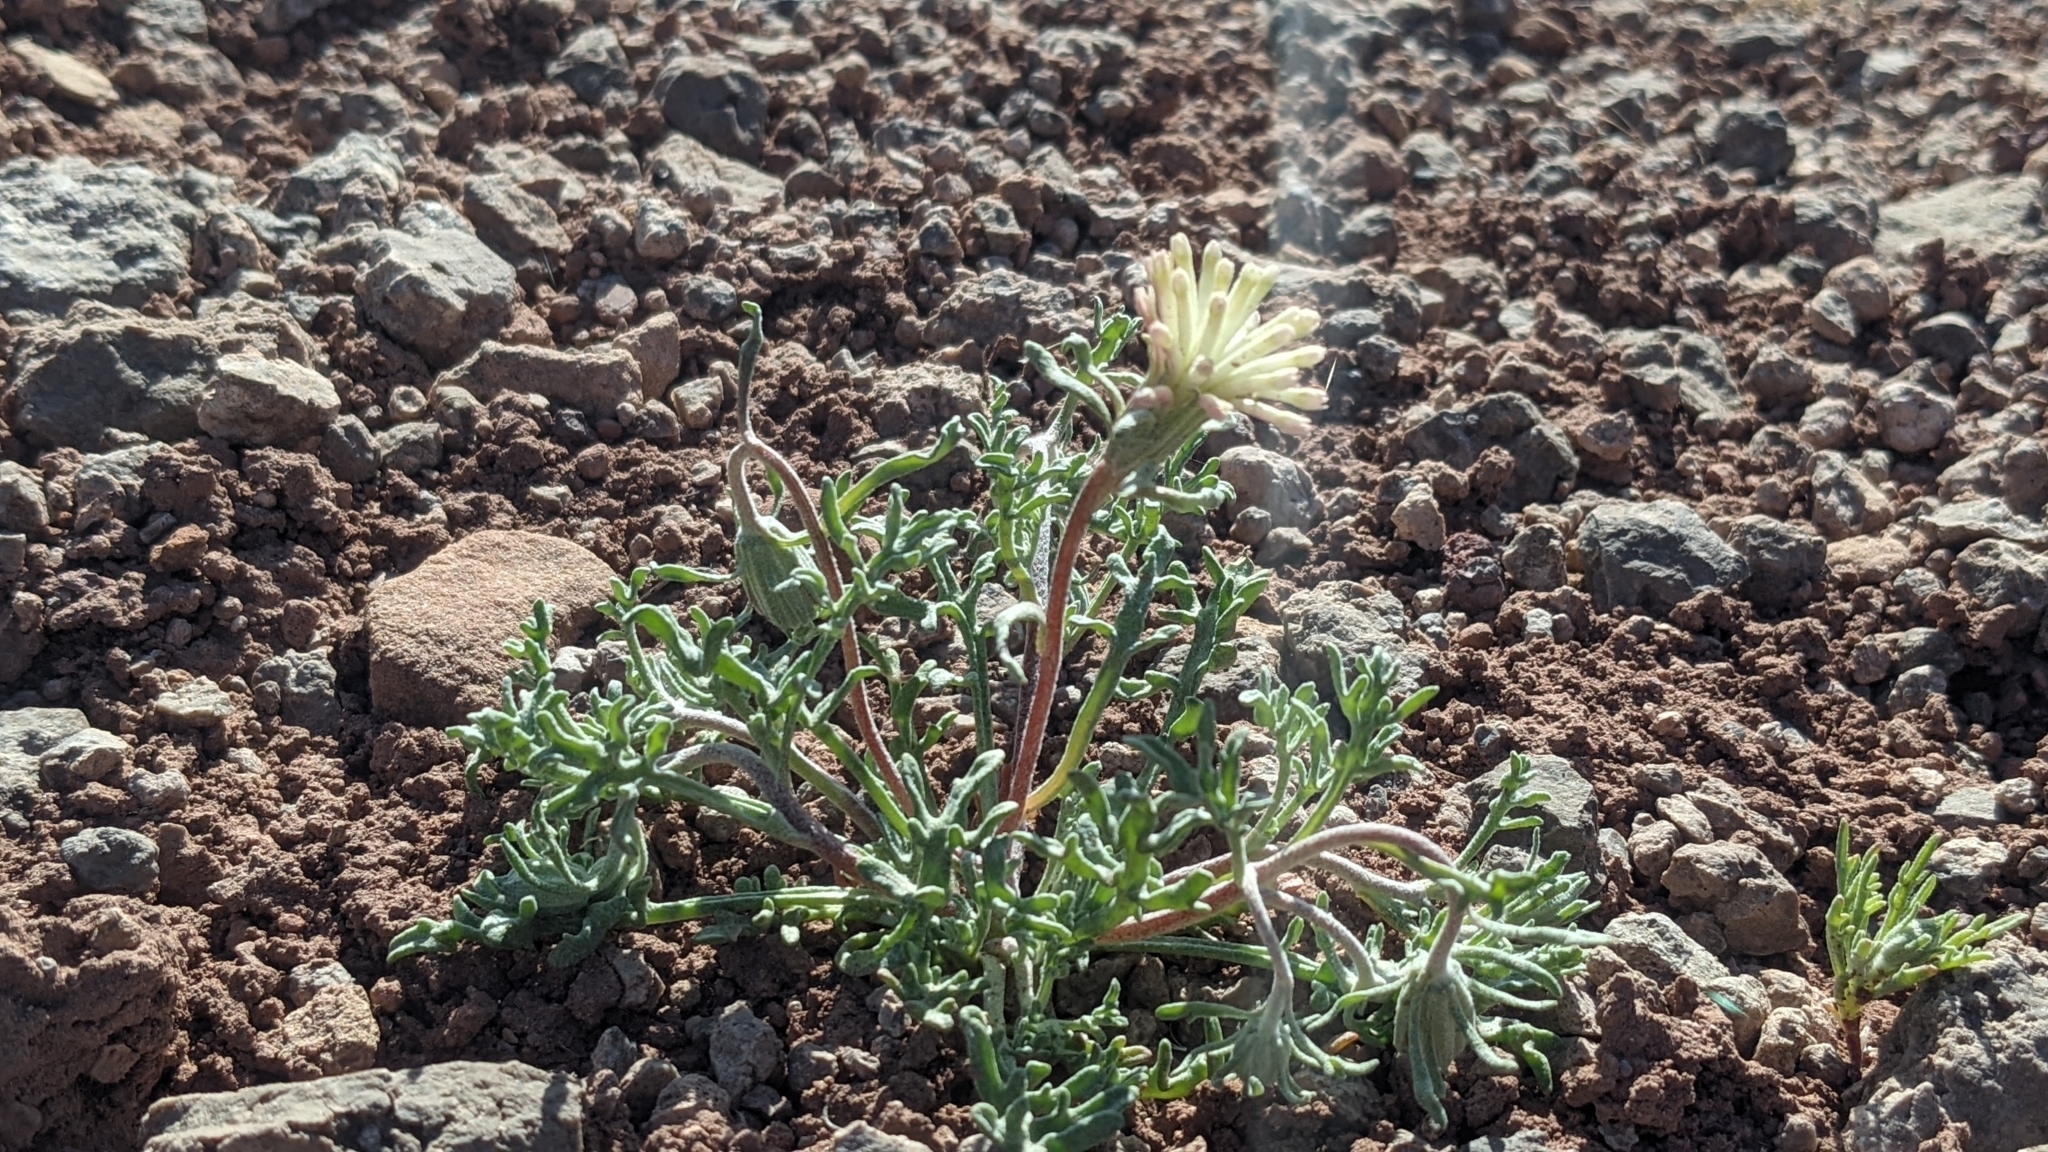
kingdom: Plantae
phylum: Tracheophyta
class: Magnoliopsida
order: Asterales
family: Asteraceae
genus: Chaenactis
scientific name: Chaenactis macrantha
